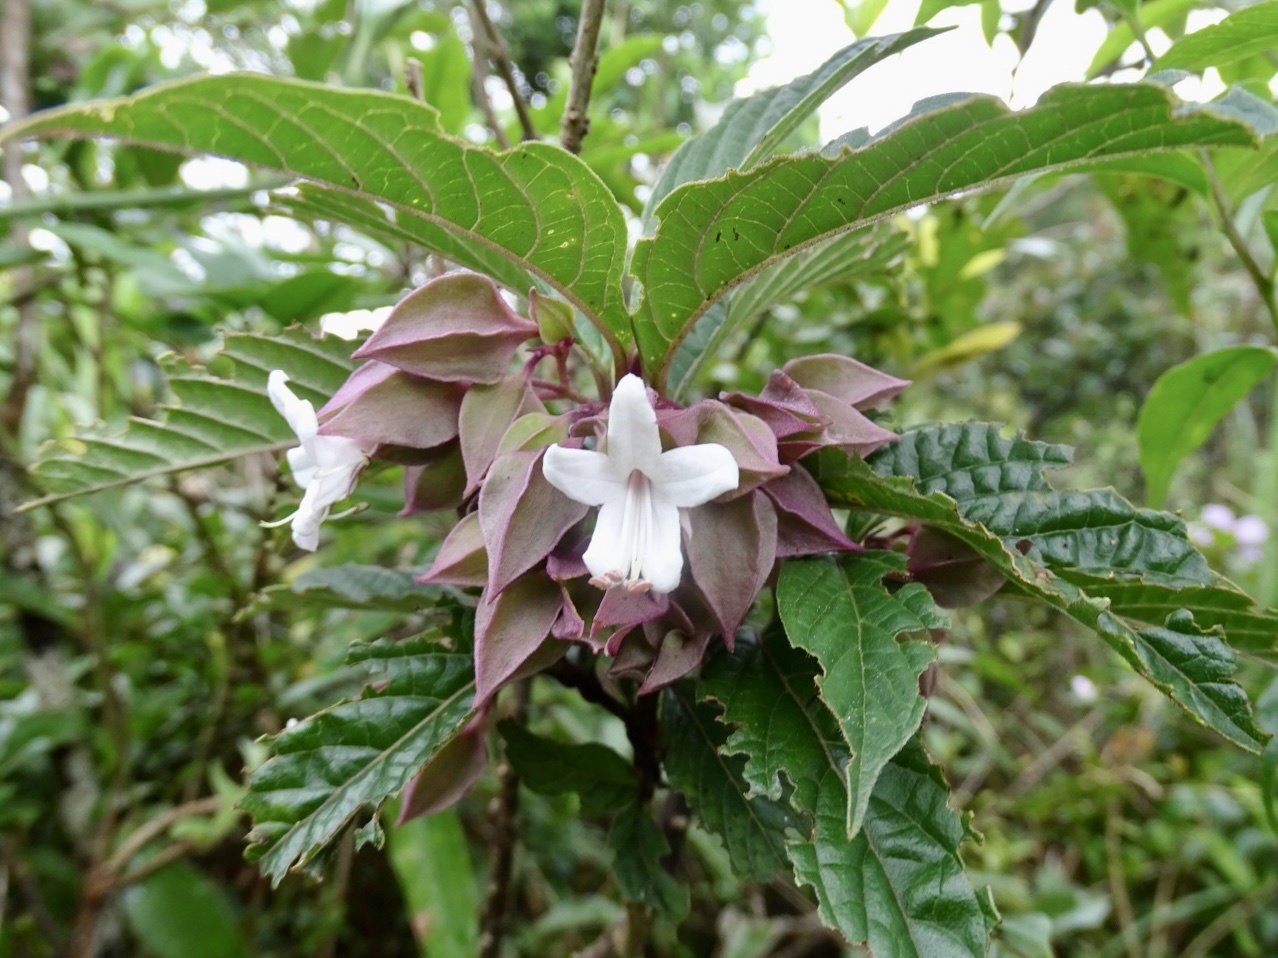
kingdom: Plantae
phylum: Tracheophyta
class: Magnoliopsida
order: Lamiales
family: Lamiaceae
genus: Clerodendrum
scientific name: Clerodendrum fortunatum
